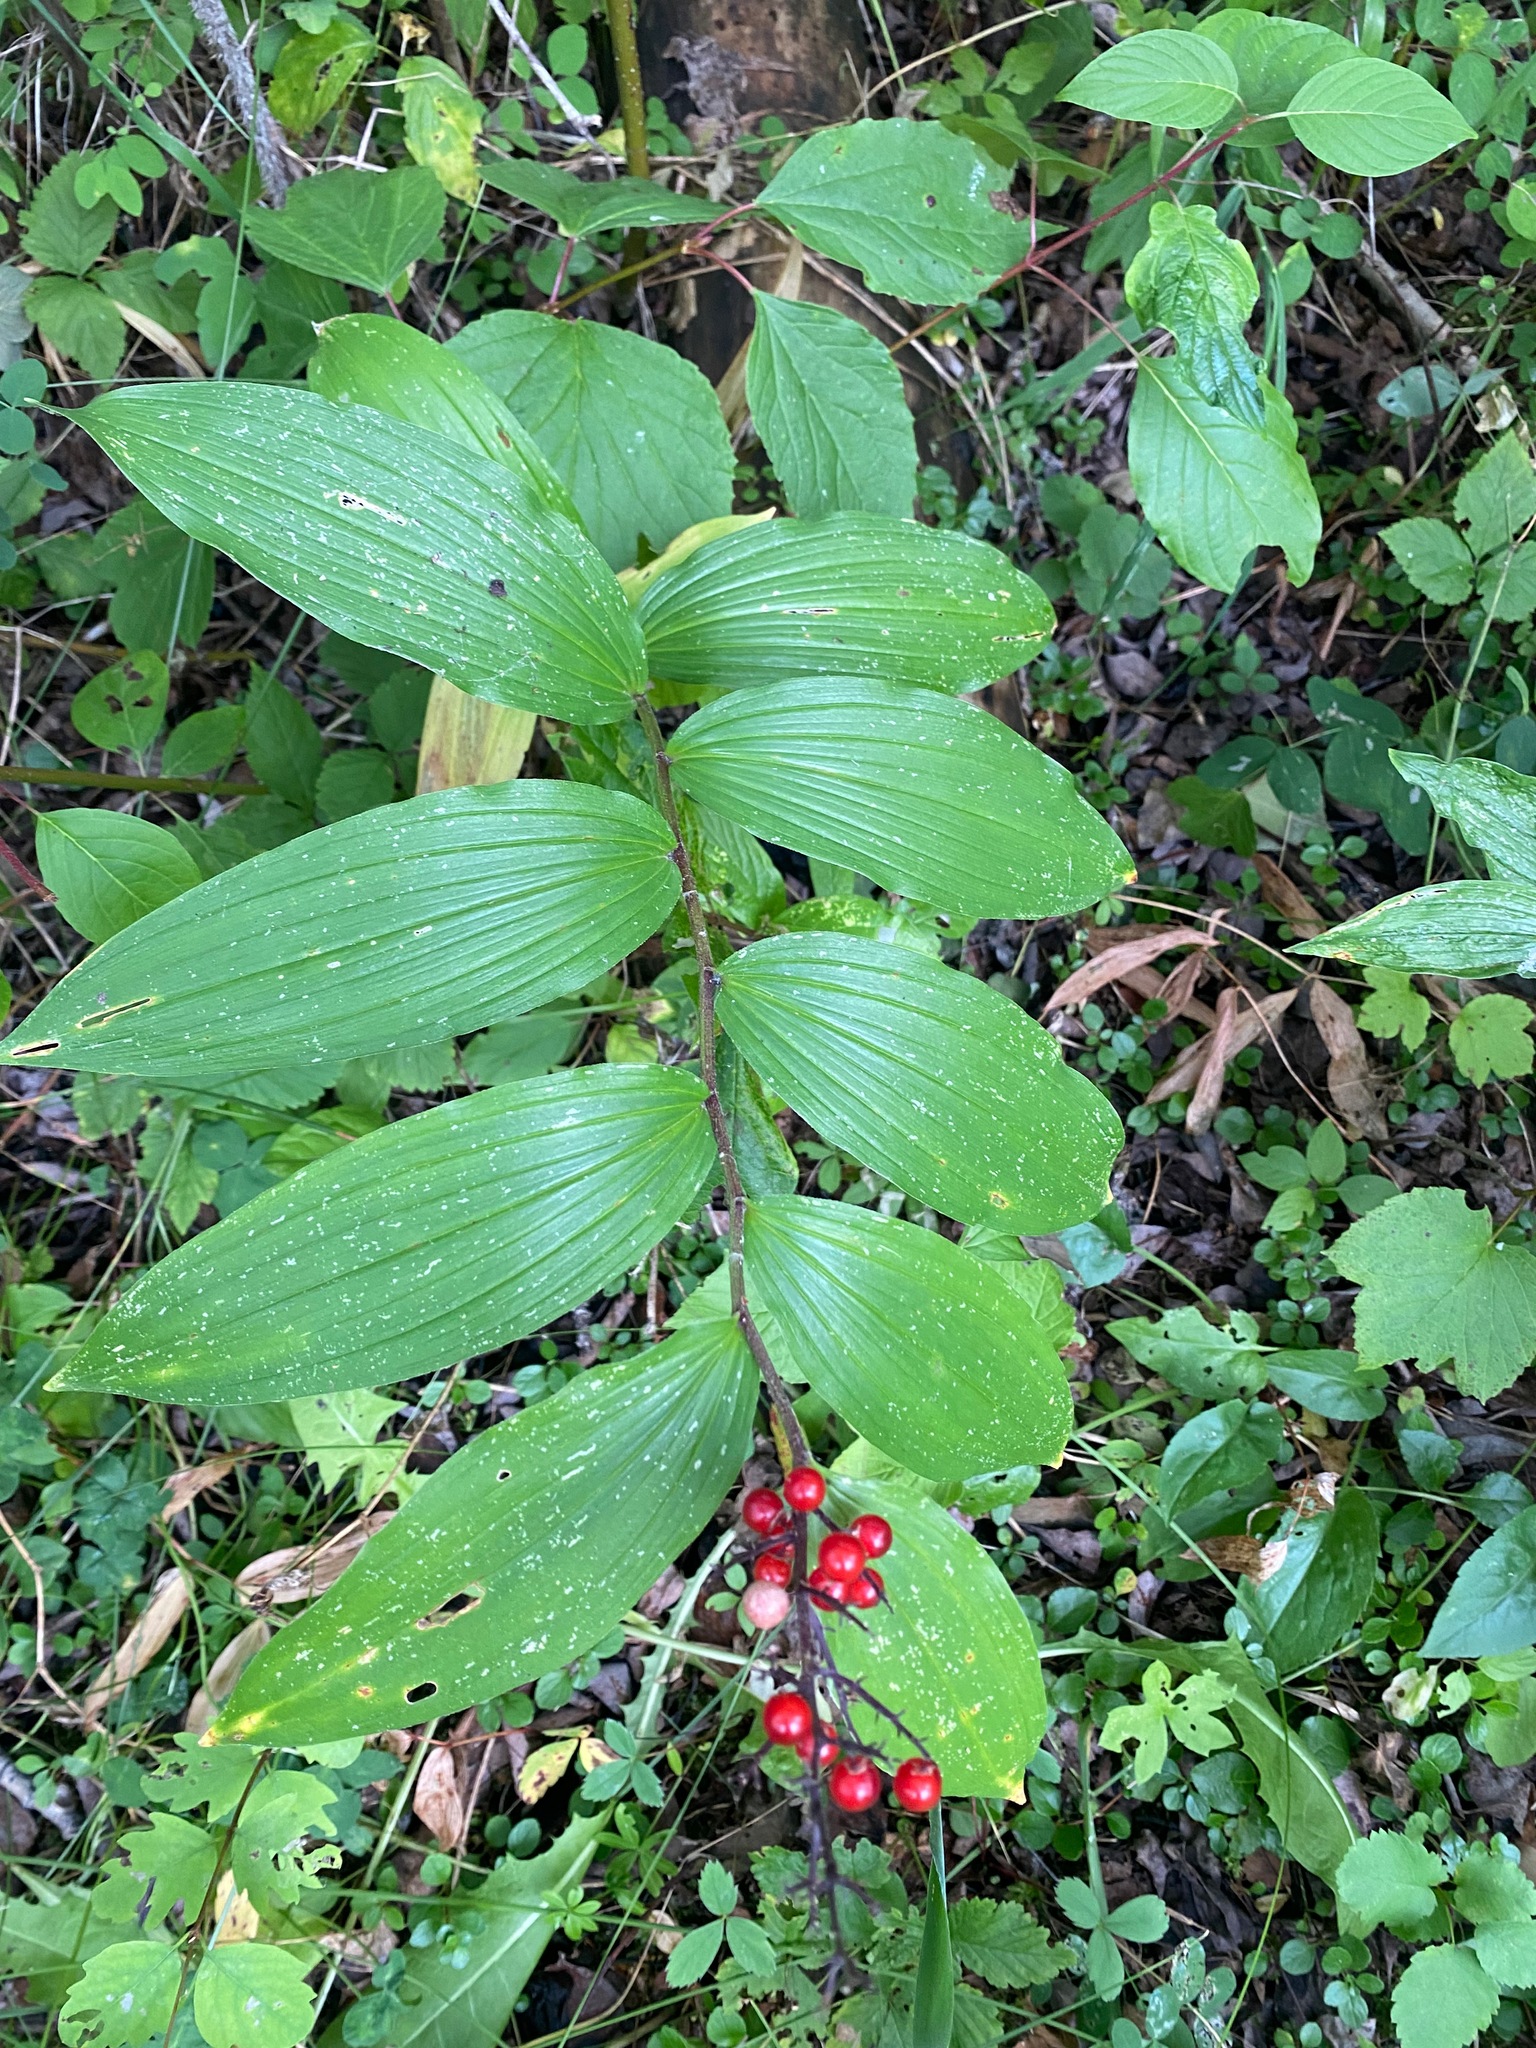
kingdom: Plantae
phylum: Tracheophyta
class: Liliopsida
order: Asparagales
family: Asparagaceae
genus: Maianthemum
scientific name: Maianthemum racemosum
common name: False spikenard
